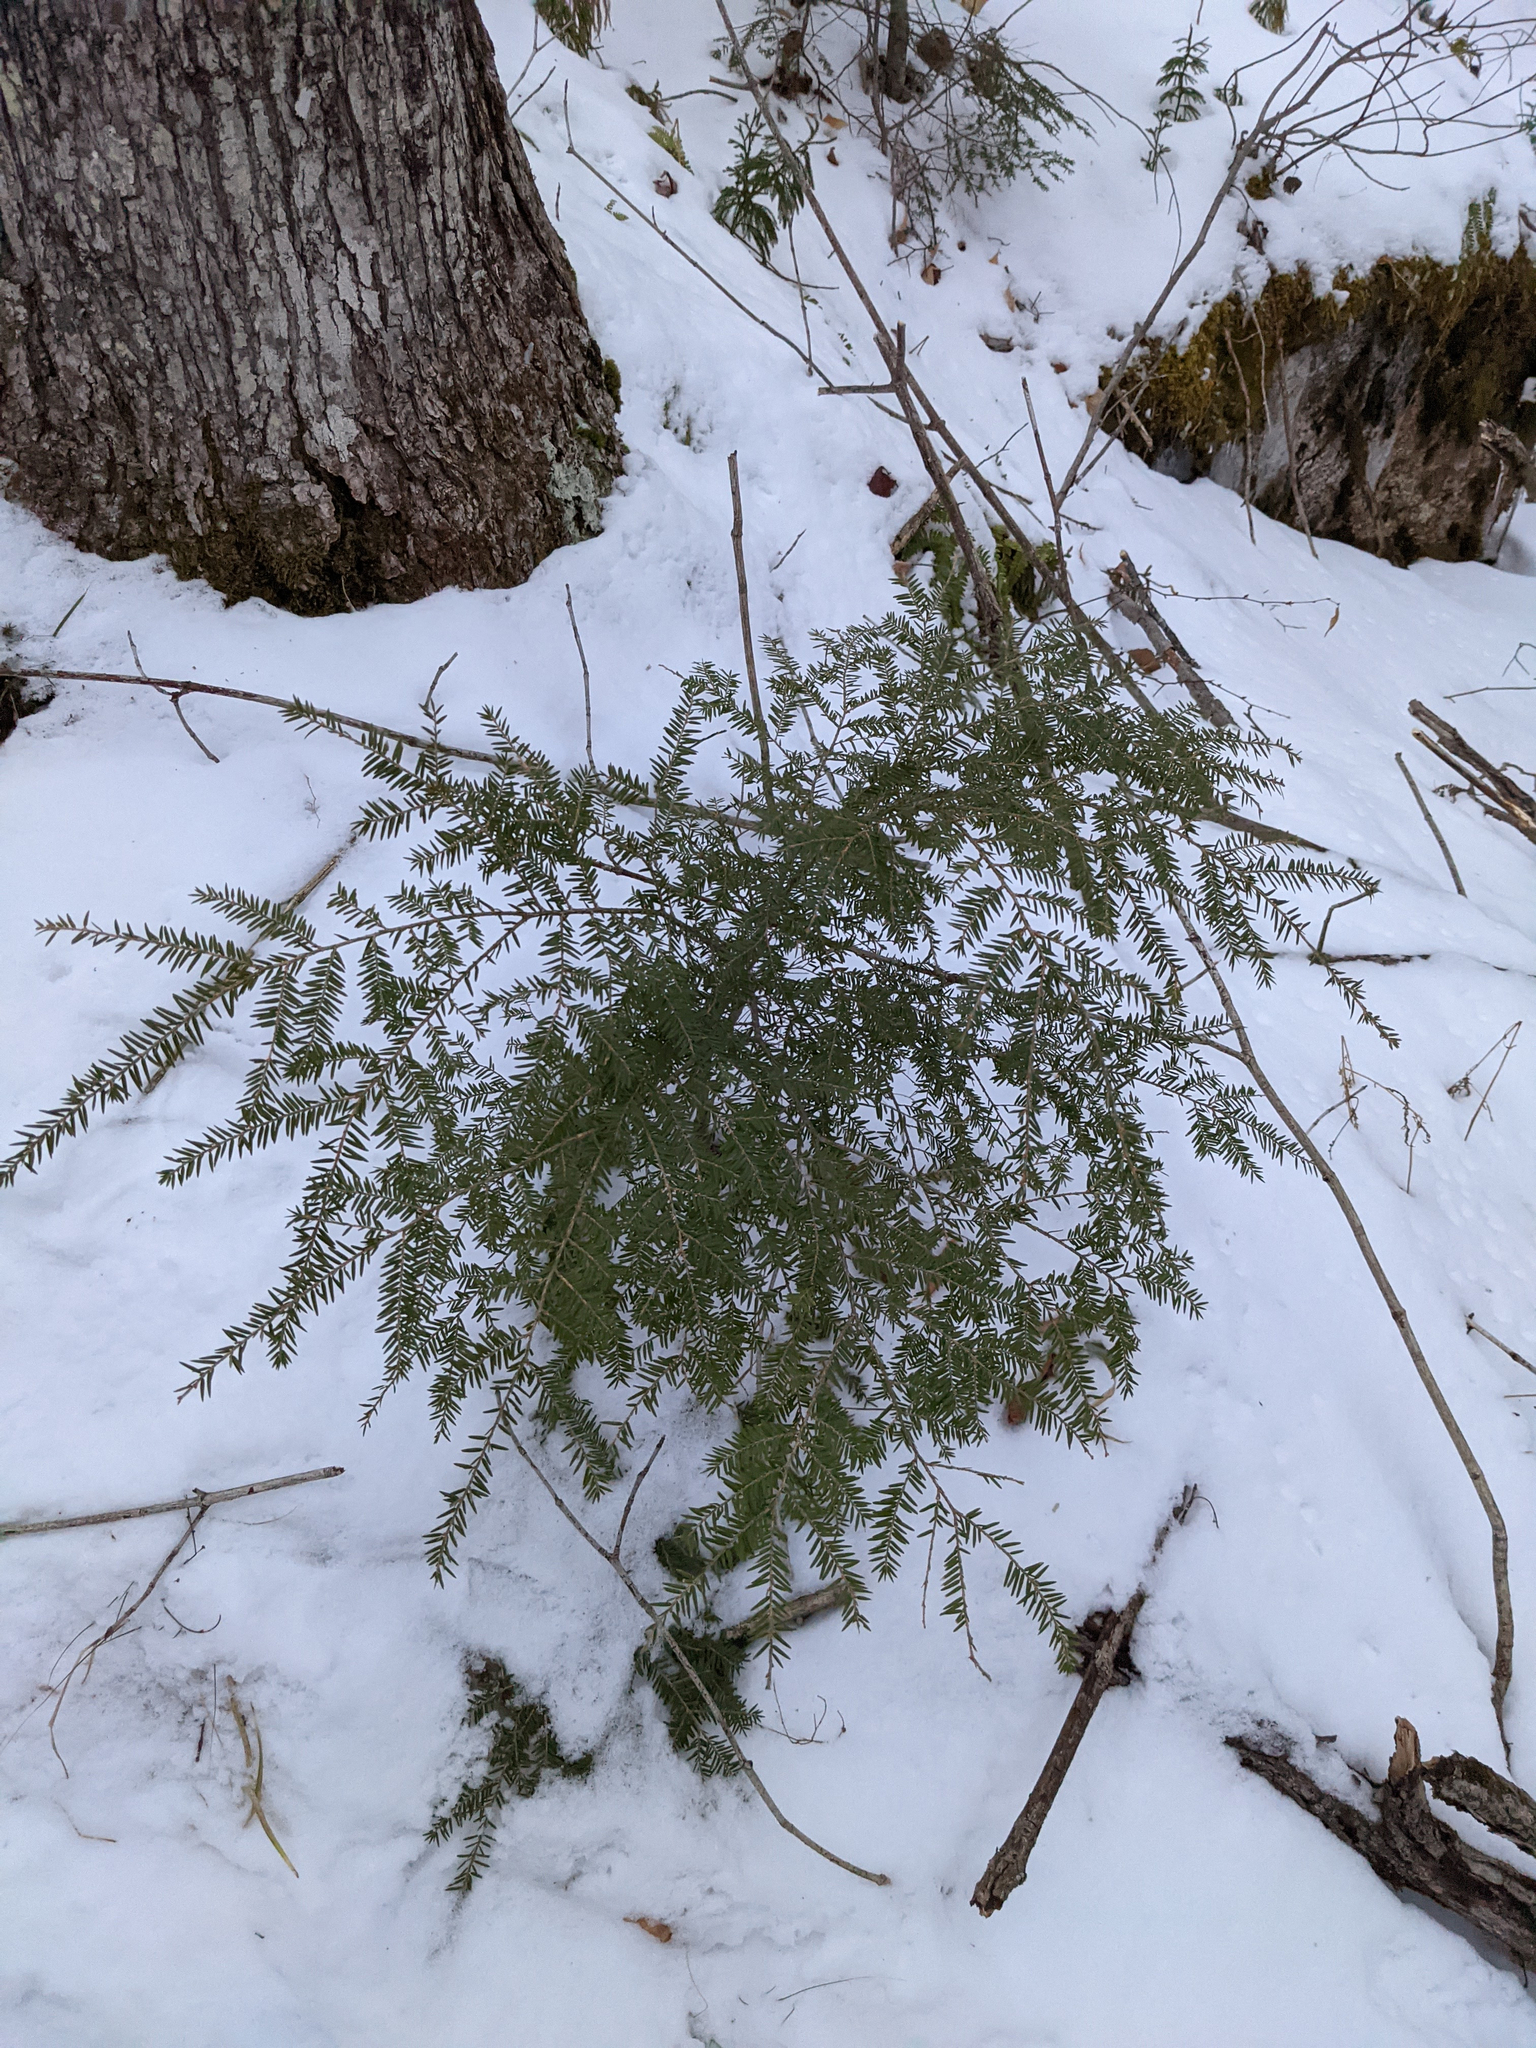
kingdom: Plantae
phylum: Tracheophyta
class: Pinopsida
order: Pinales
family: Pinaceae
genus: Tsuga
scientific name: Tsuga canadensis
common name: Eastern hemlock
